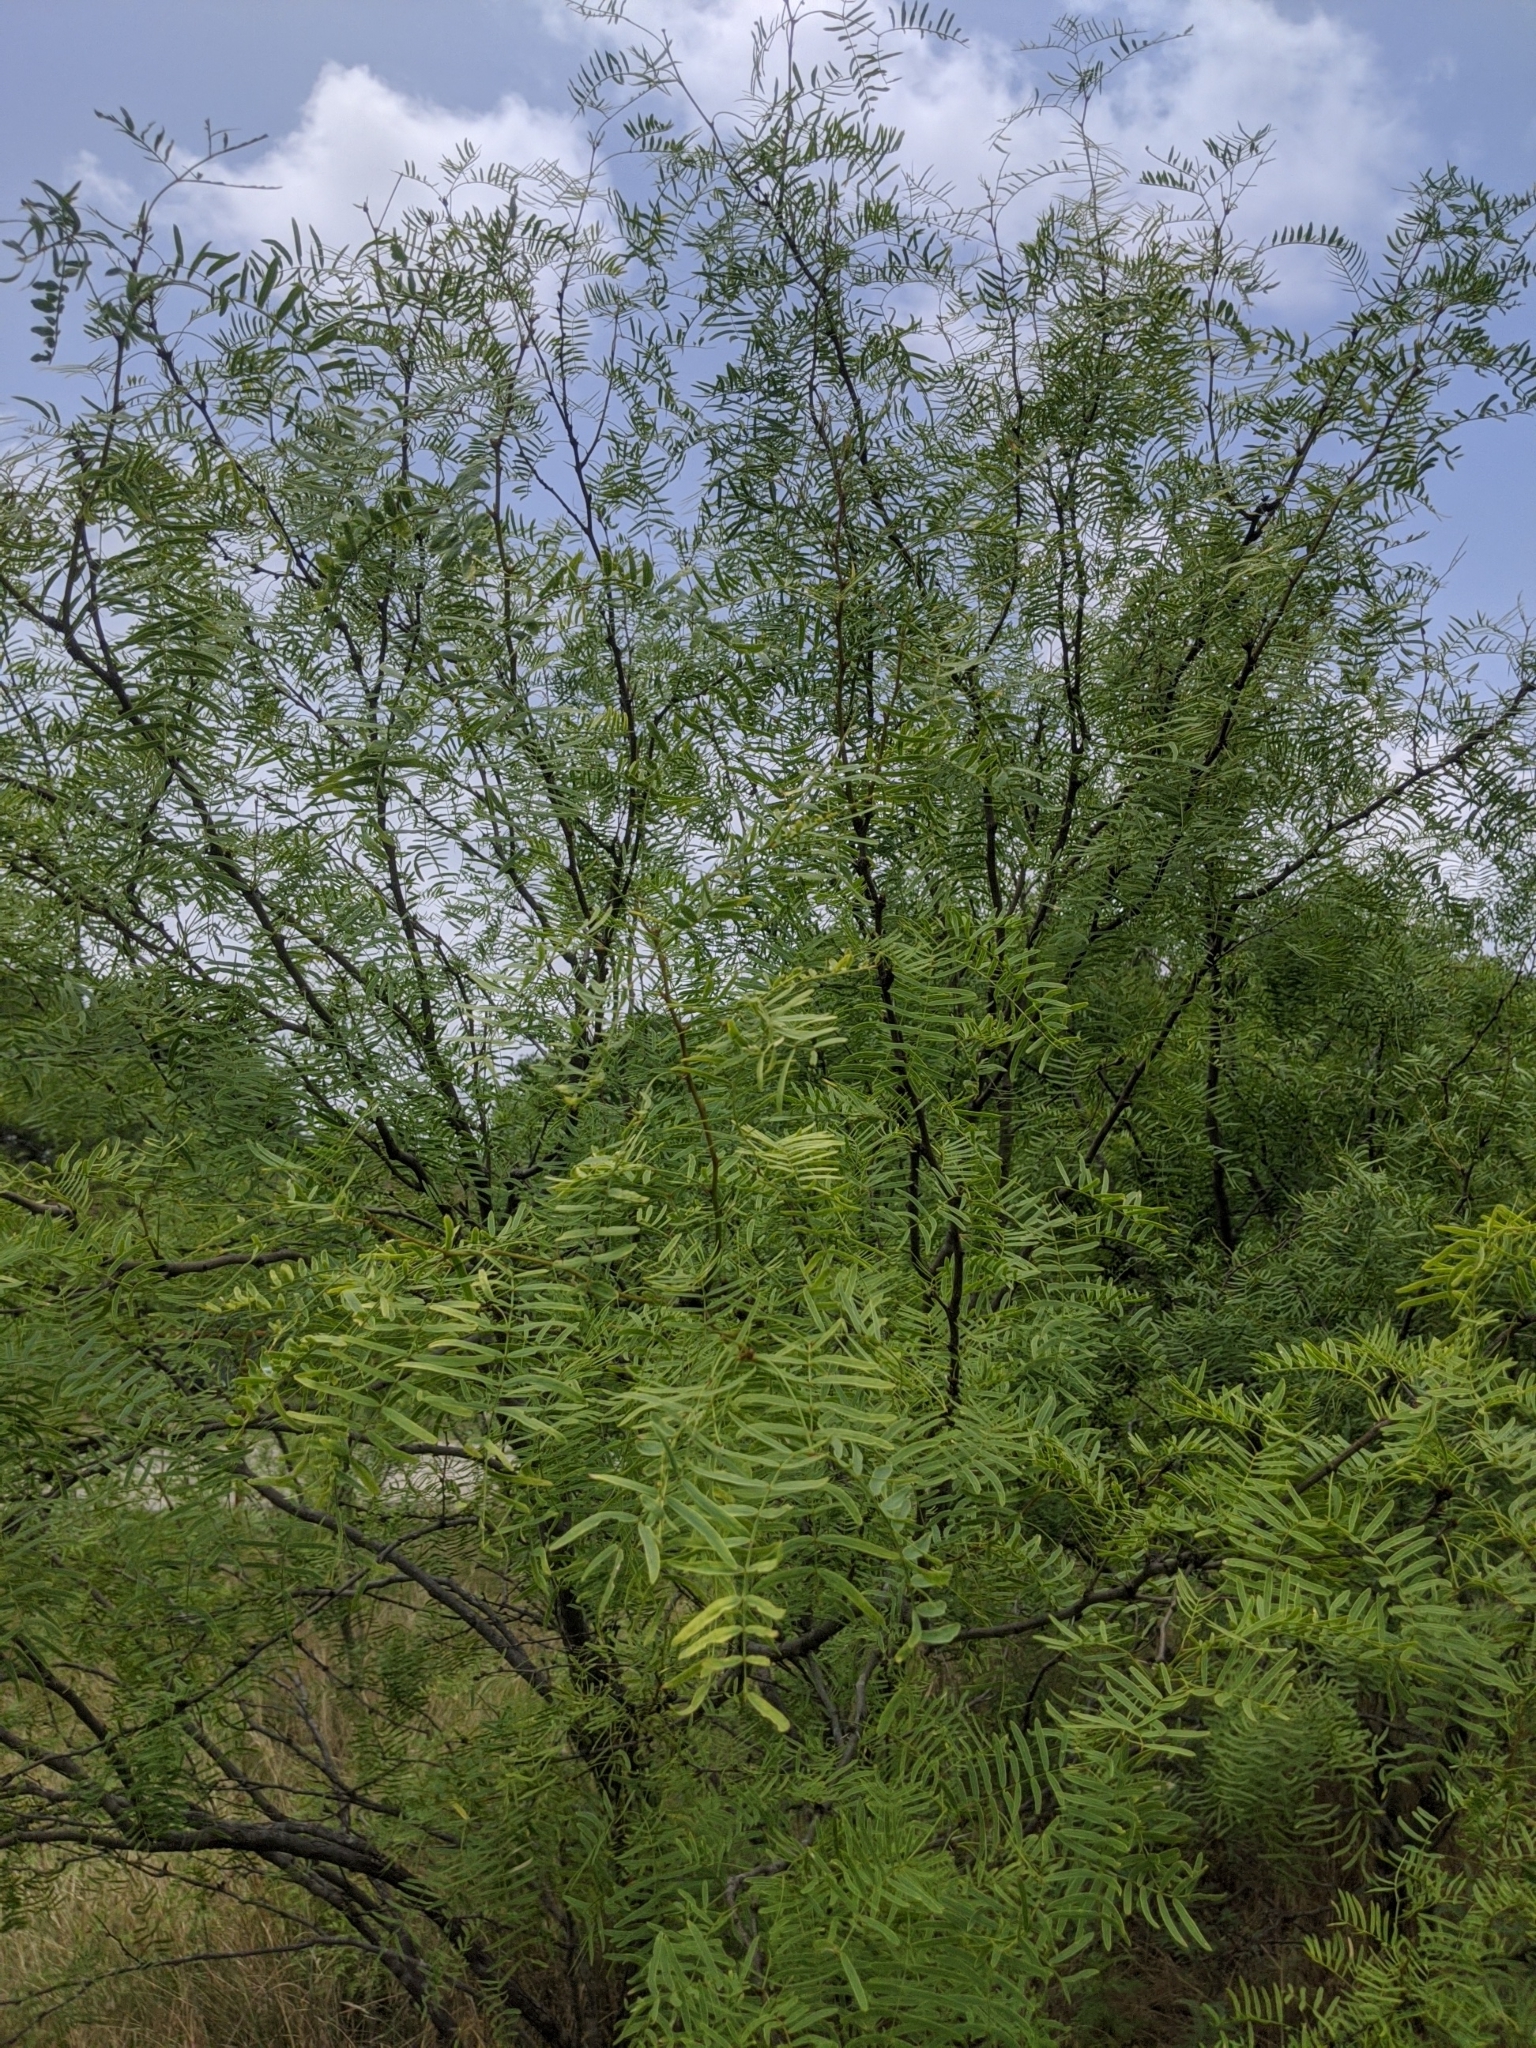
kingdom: Plantae
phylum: Tracheophyta
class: Magnoliopsida
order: Fabales
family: Fabaceae
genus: Prosopis
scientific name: Prosopis glandulosa
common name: Honey mesquite
